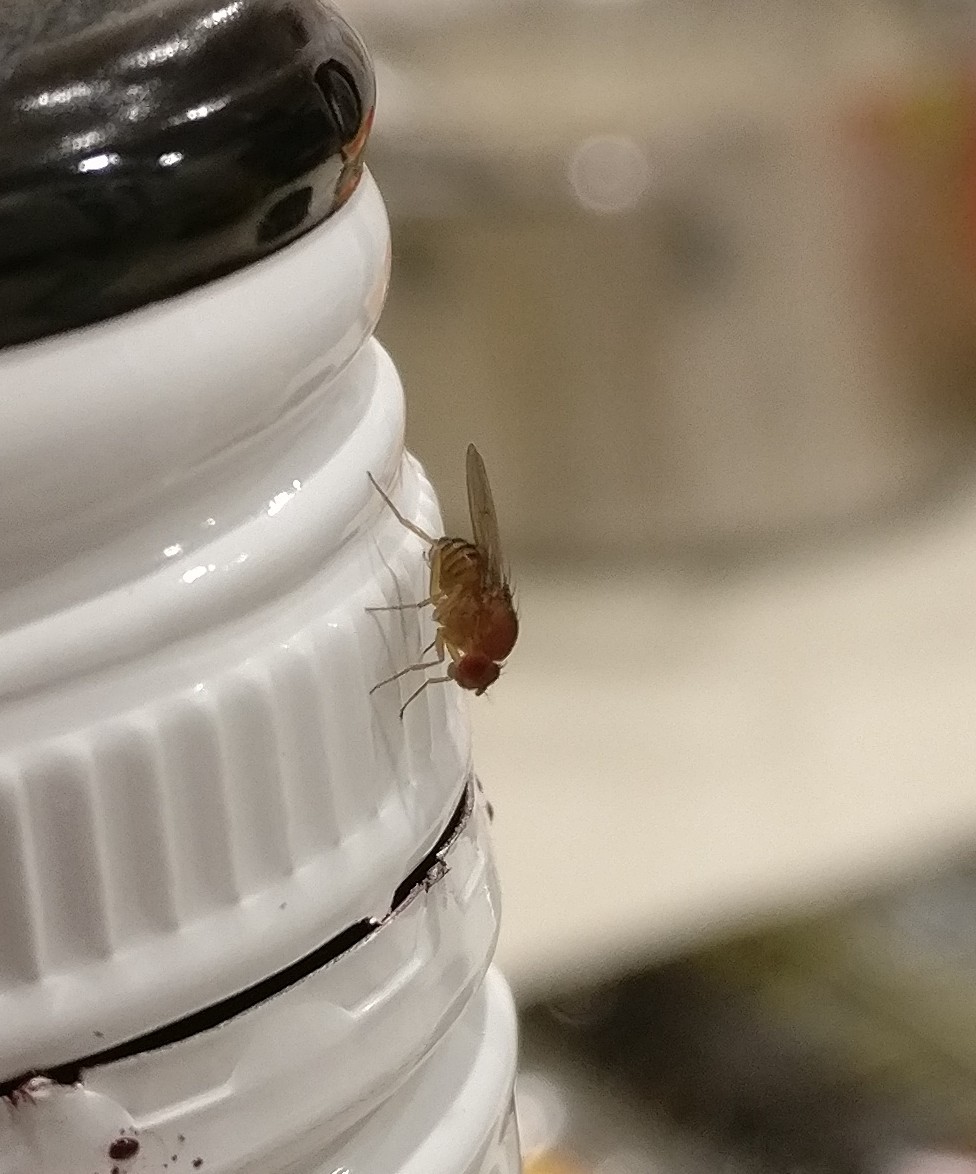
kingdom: Animalia
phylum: Arthropoda
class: Insecta
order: Diptera
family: Drosophilidae
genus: Drosophila
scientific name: Drosophila immigrans
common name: Pomace fly
